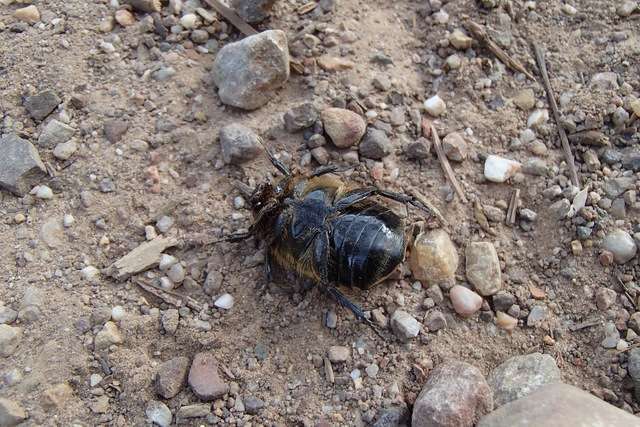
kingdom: Animalia
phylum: Arthropoda
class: Insecta
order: Coleoptera
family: Scarabaeidae
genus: Chondropyga
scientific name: Chondropyga gulosa
